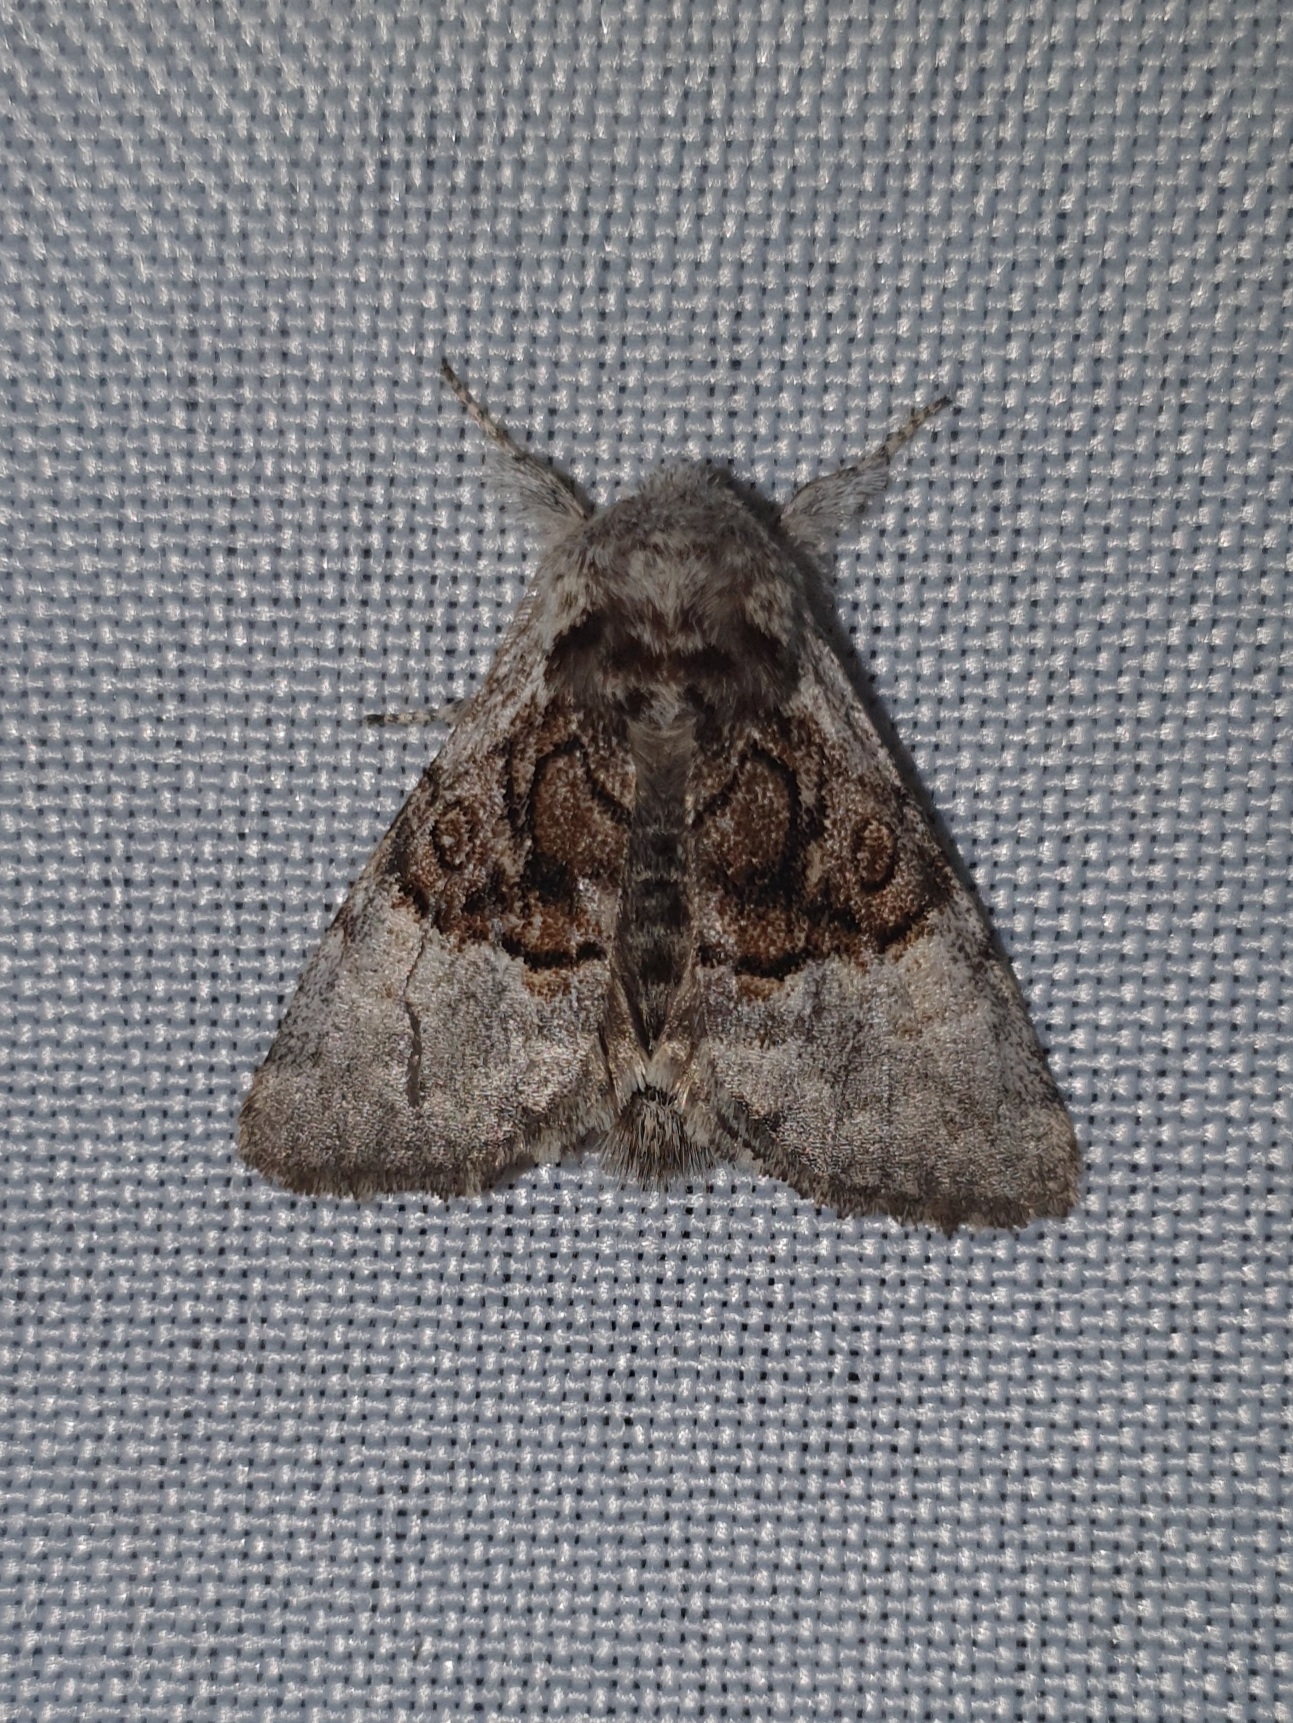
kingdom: Animalia
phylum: Arthropoda
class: Insecta
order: Lepidoptera
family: Noctuidae
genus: Colocasia
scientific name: Colocasia coryli
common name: Nut-tree tussock
